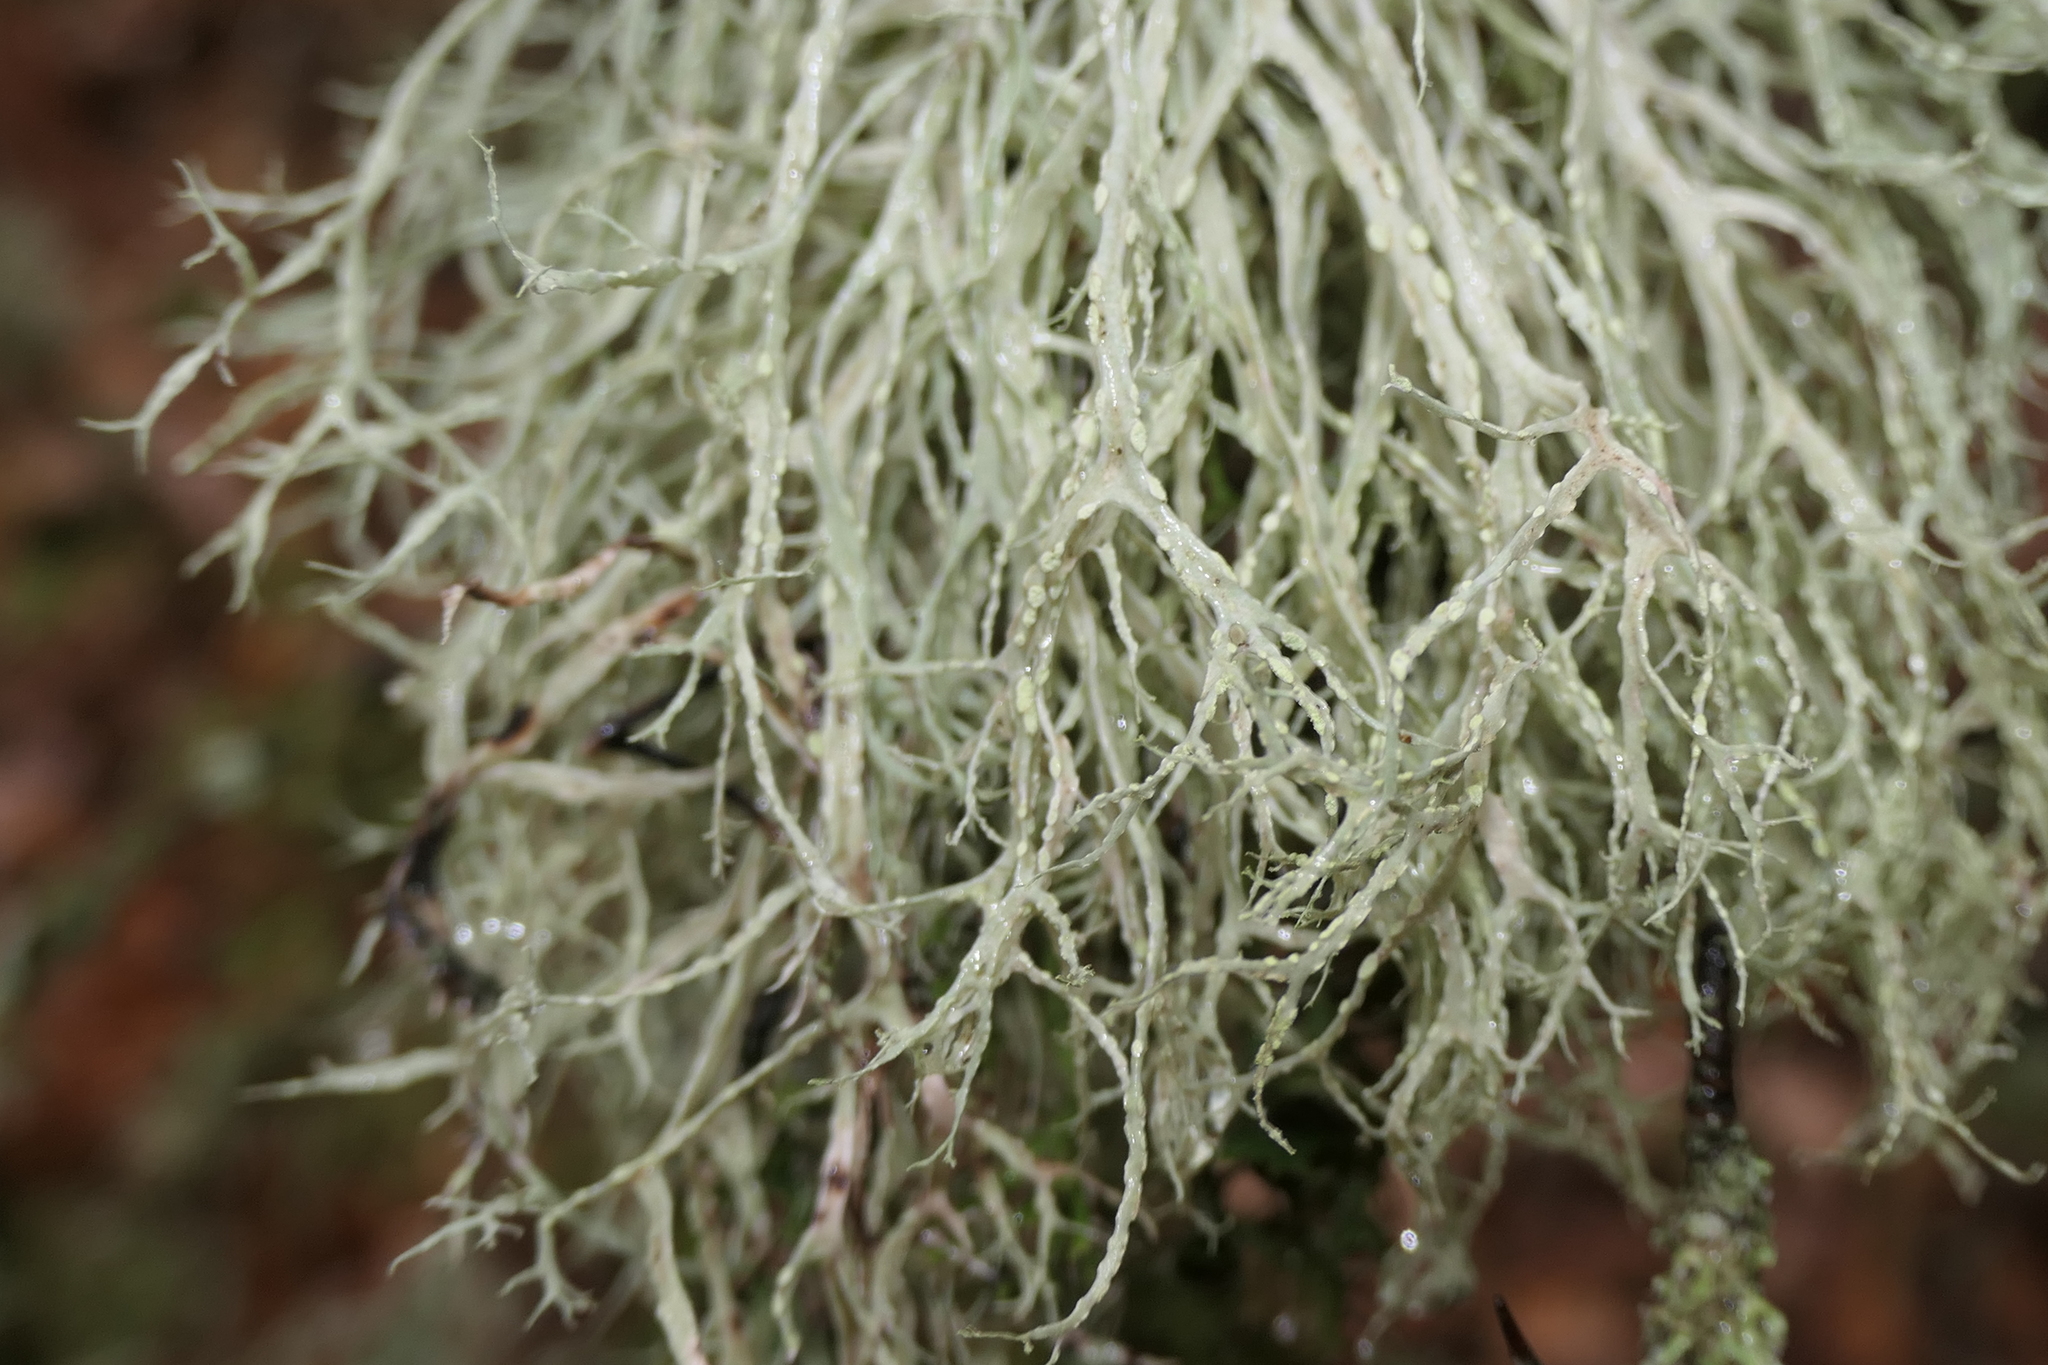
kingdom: Fungi
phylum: Ascomycota
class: Lecanoromycetes
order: Lecanorales
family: Ramalinaceae
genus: Ramalina
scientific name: Ramalina farinacea
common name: Farinose cartilage lichen
